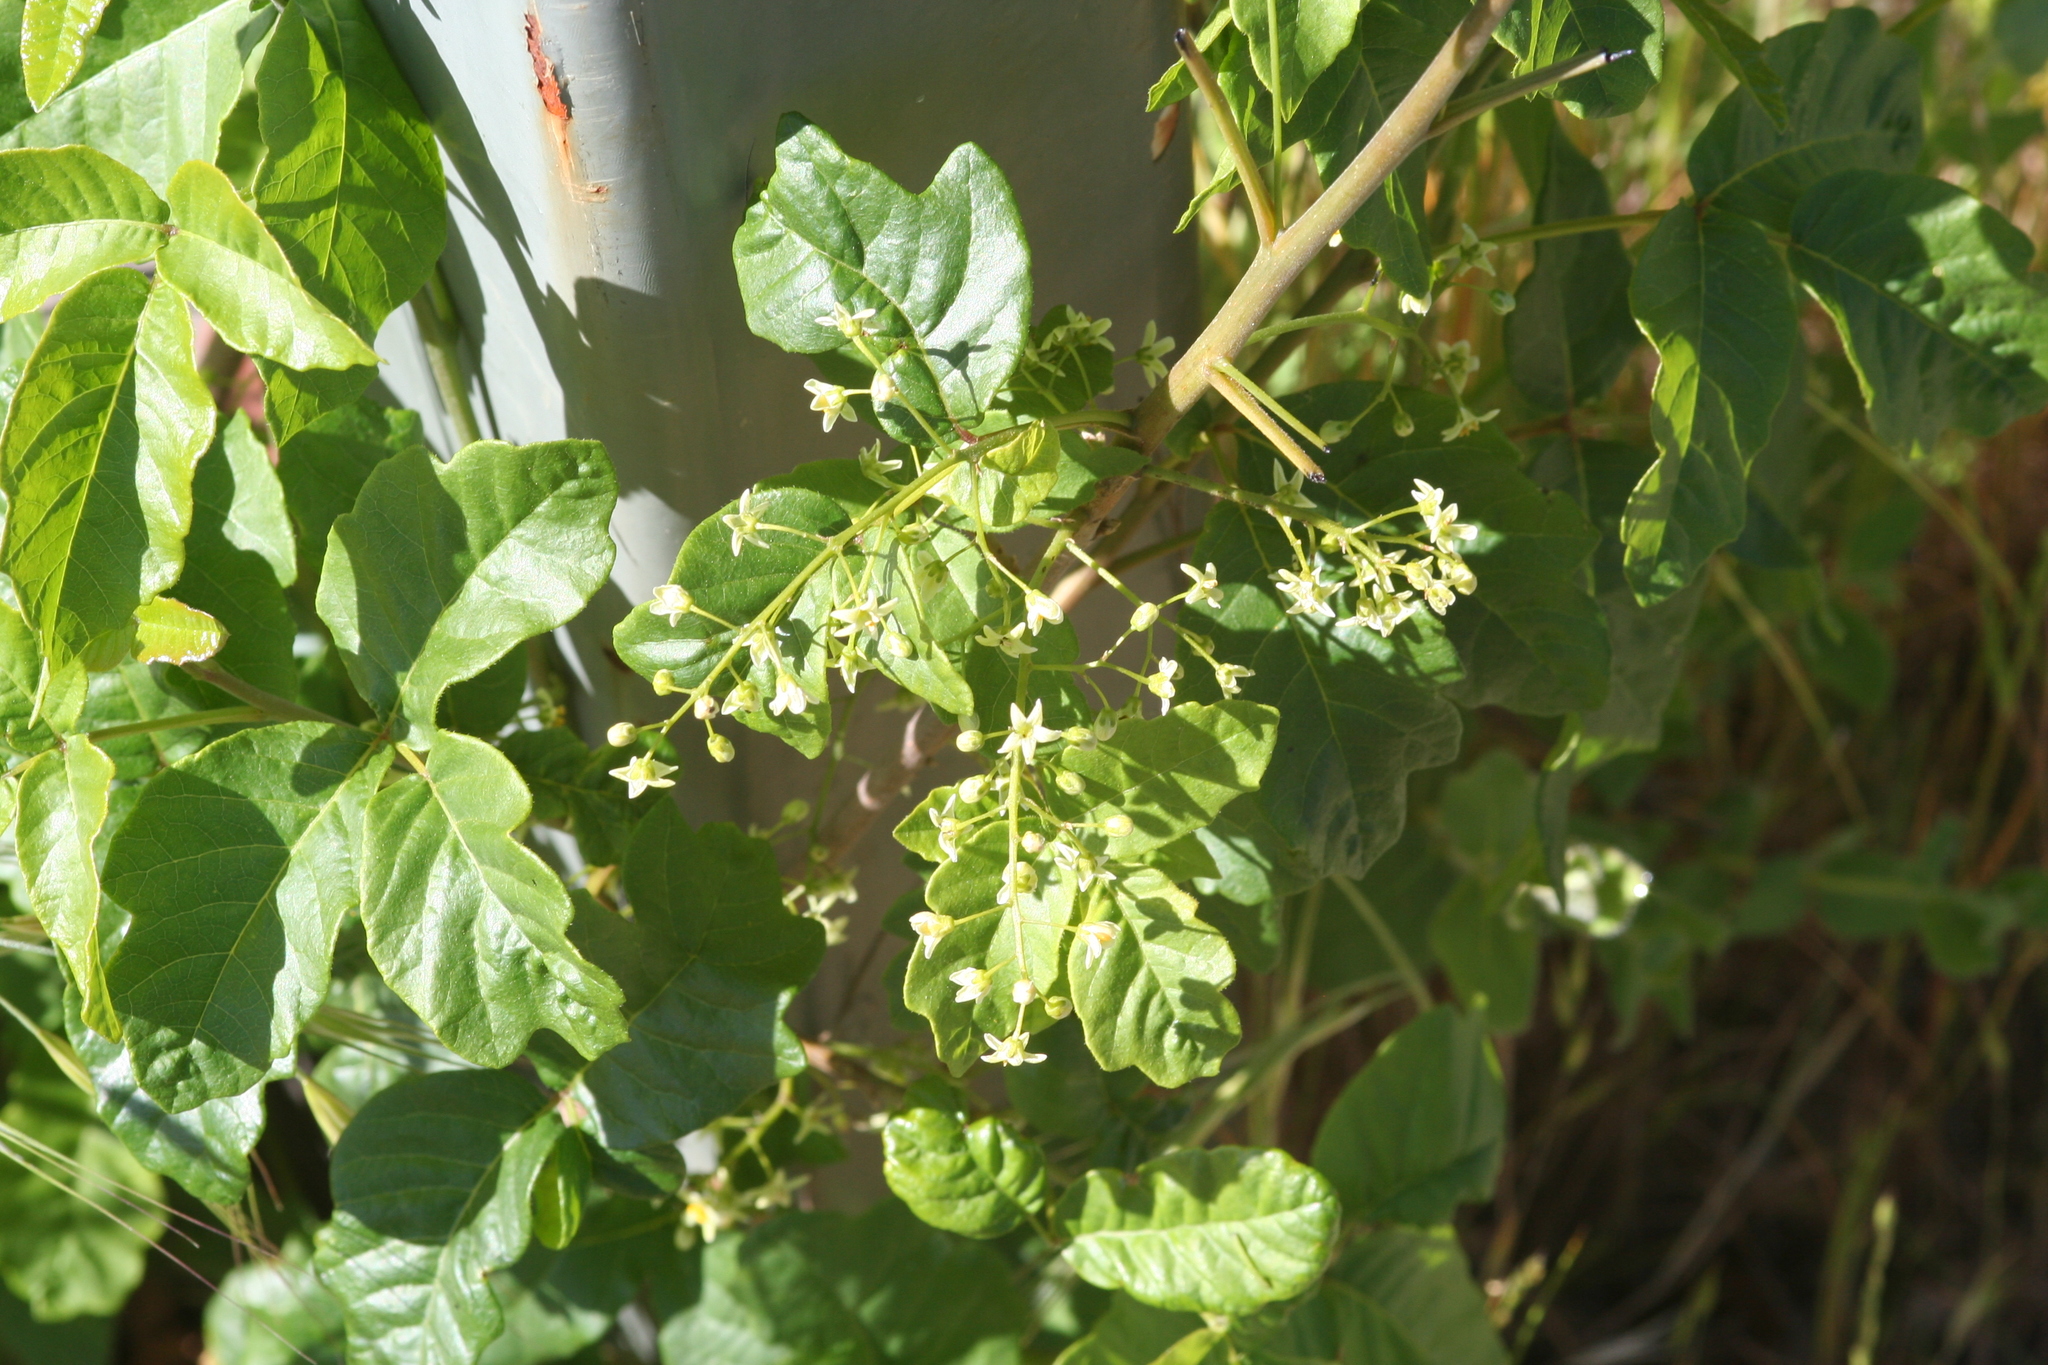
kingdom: Plantae
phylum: Tracheophyta
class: Magnoliopsida
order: Sapindales
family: Anacardiaceae
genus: Toxicodendron
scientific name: Toxicodendron diversilobum
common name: Pacific poison-oak
